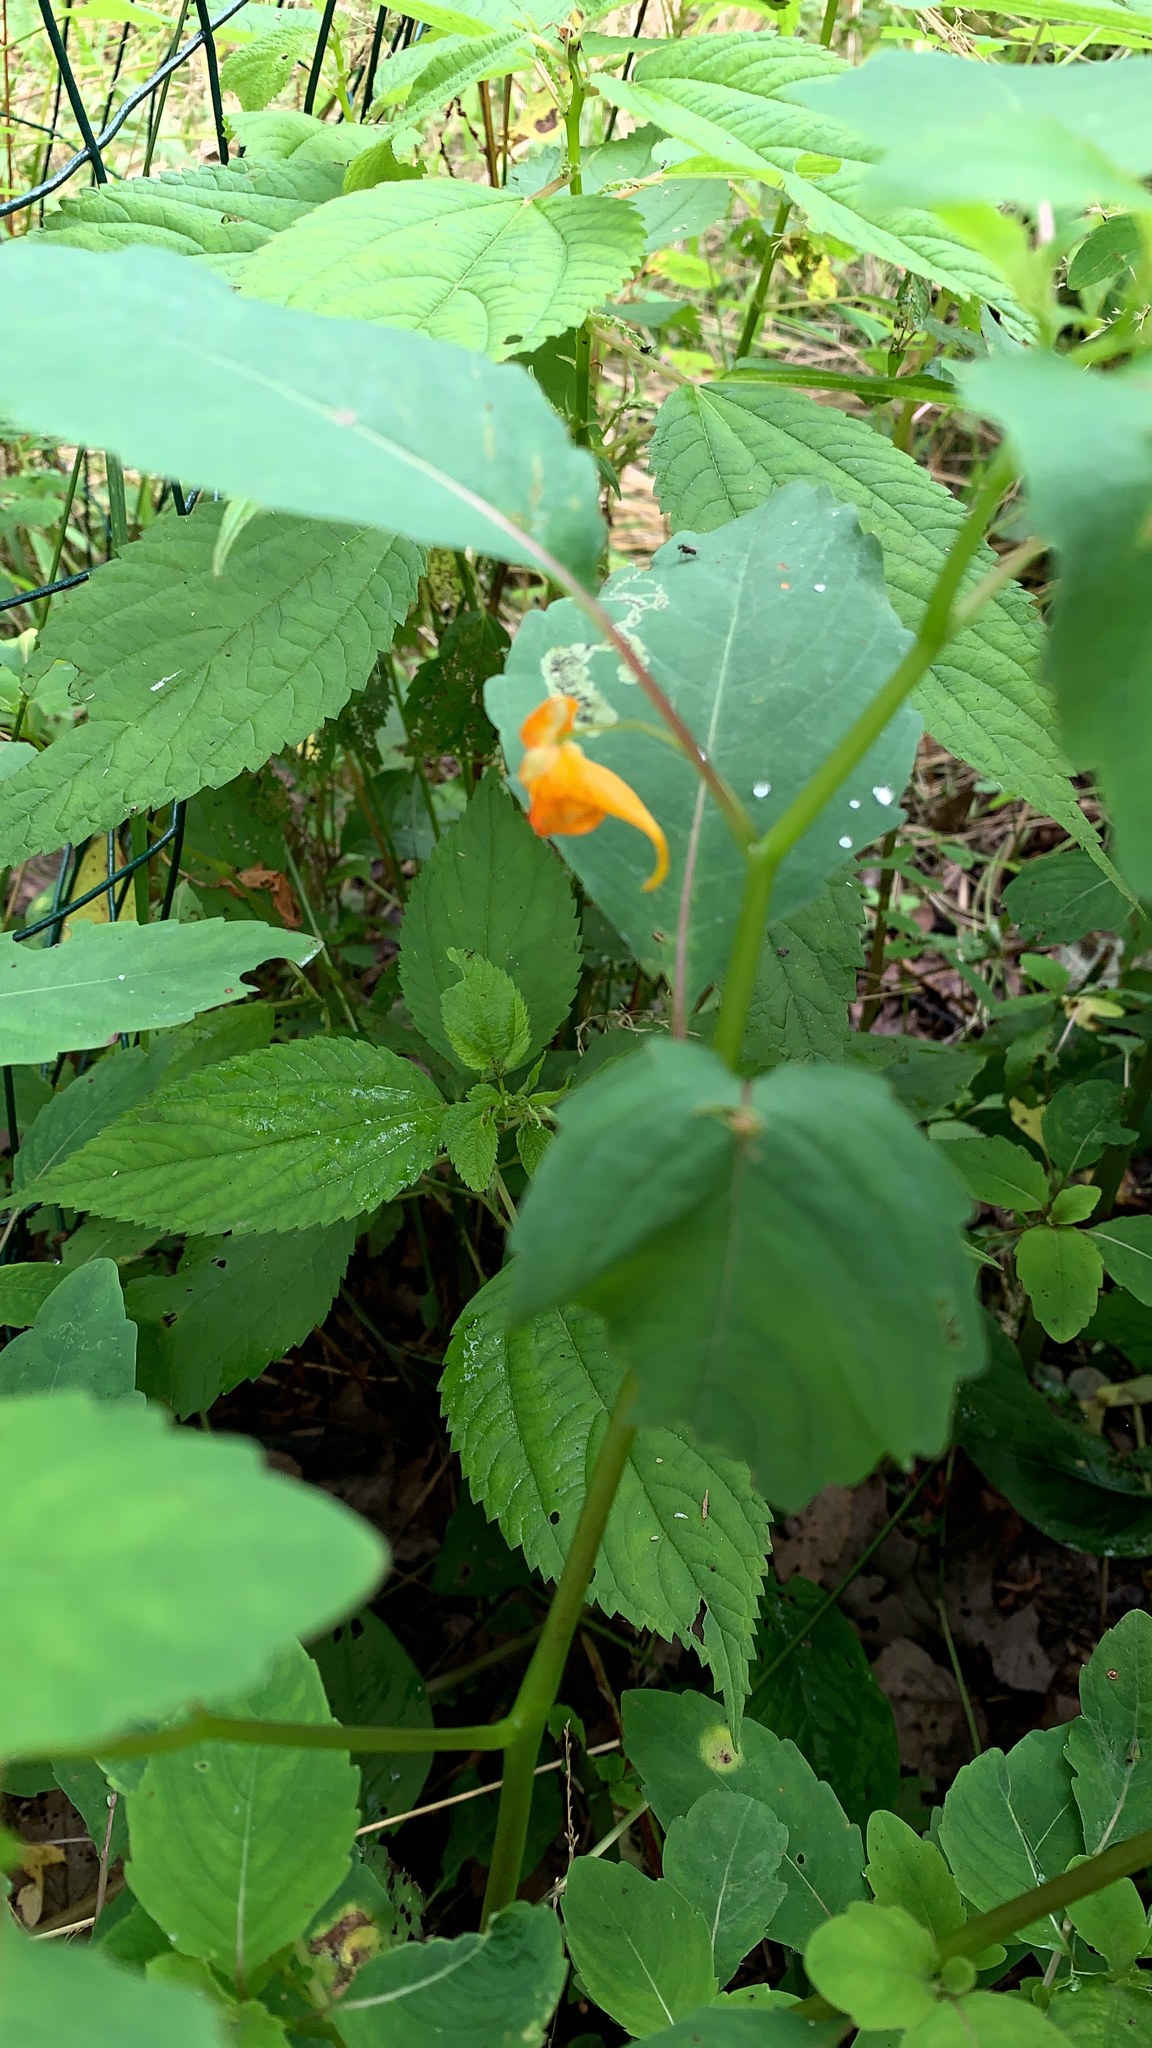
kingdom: Plantae
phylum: Tracheophyta
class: Magnoliopsida
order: Ericales
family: Balsaminaceae
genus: Impatiens
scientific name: Impatiens capensis
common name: Orange balsam
